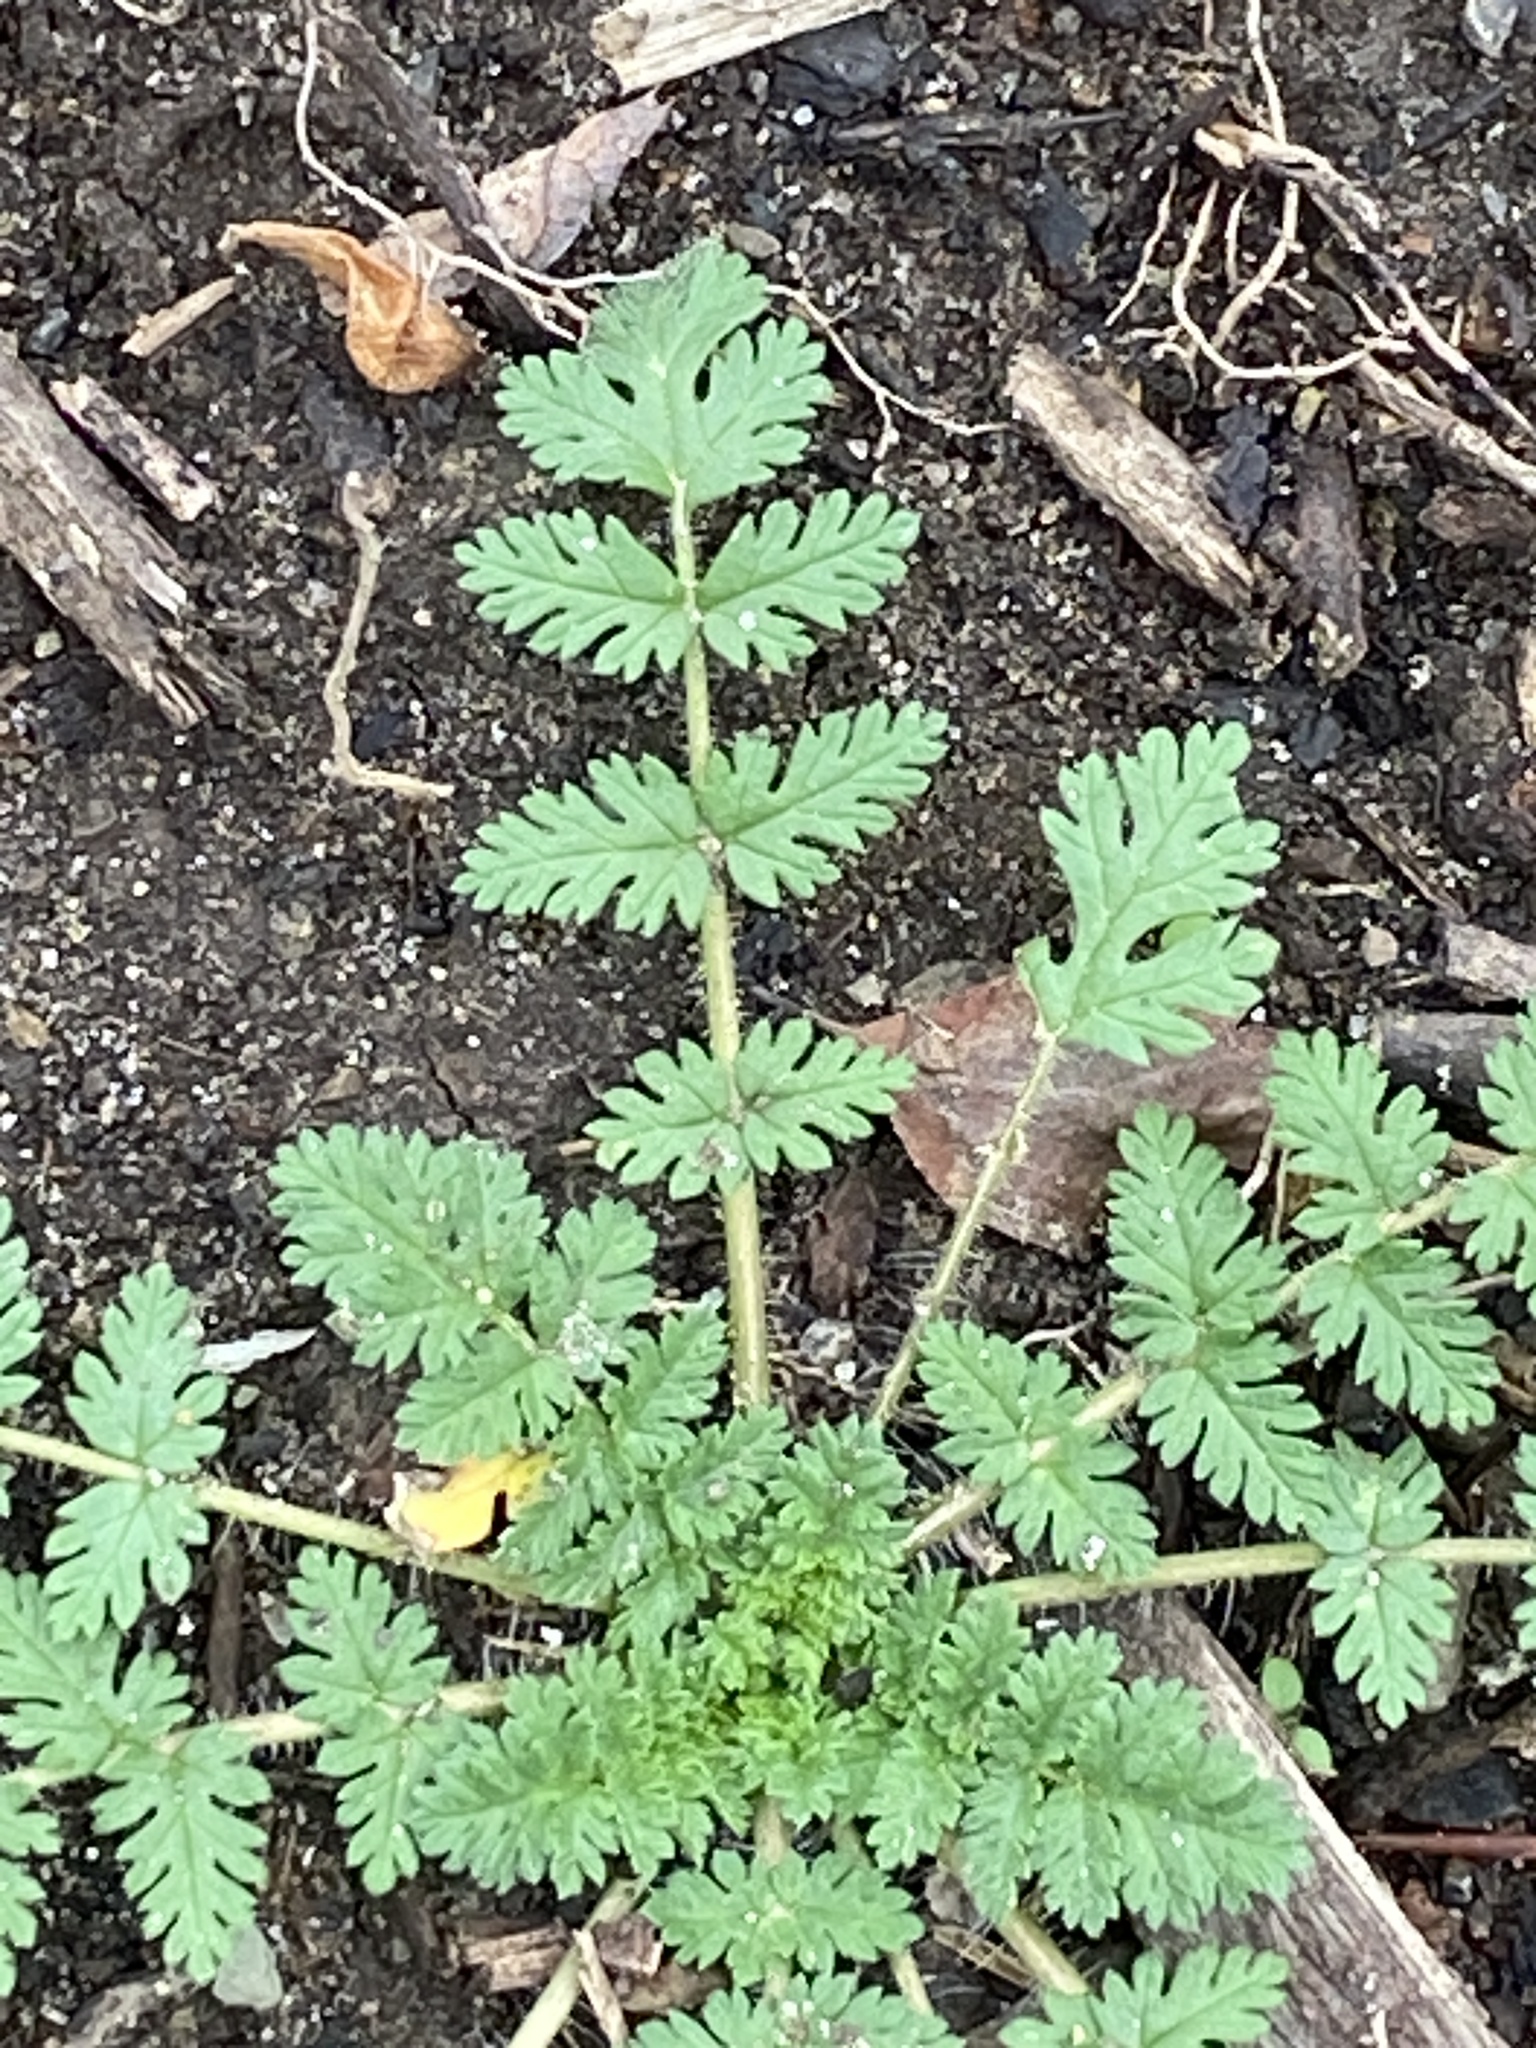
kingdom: Plantae
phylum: Tracheophyta
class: Magnoliopsida
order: Geraniales
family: Geraniaceae
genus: Erodium
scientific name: Erodium cicutarium
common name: Common stork's-bill
